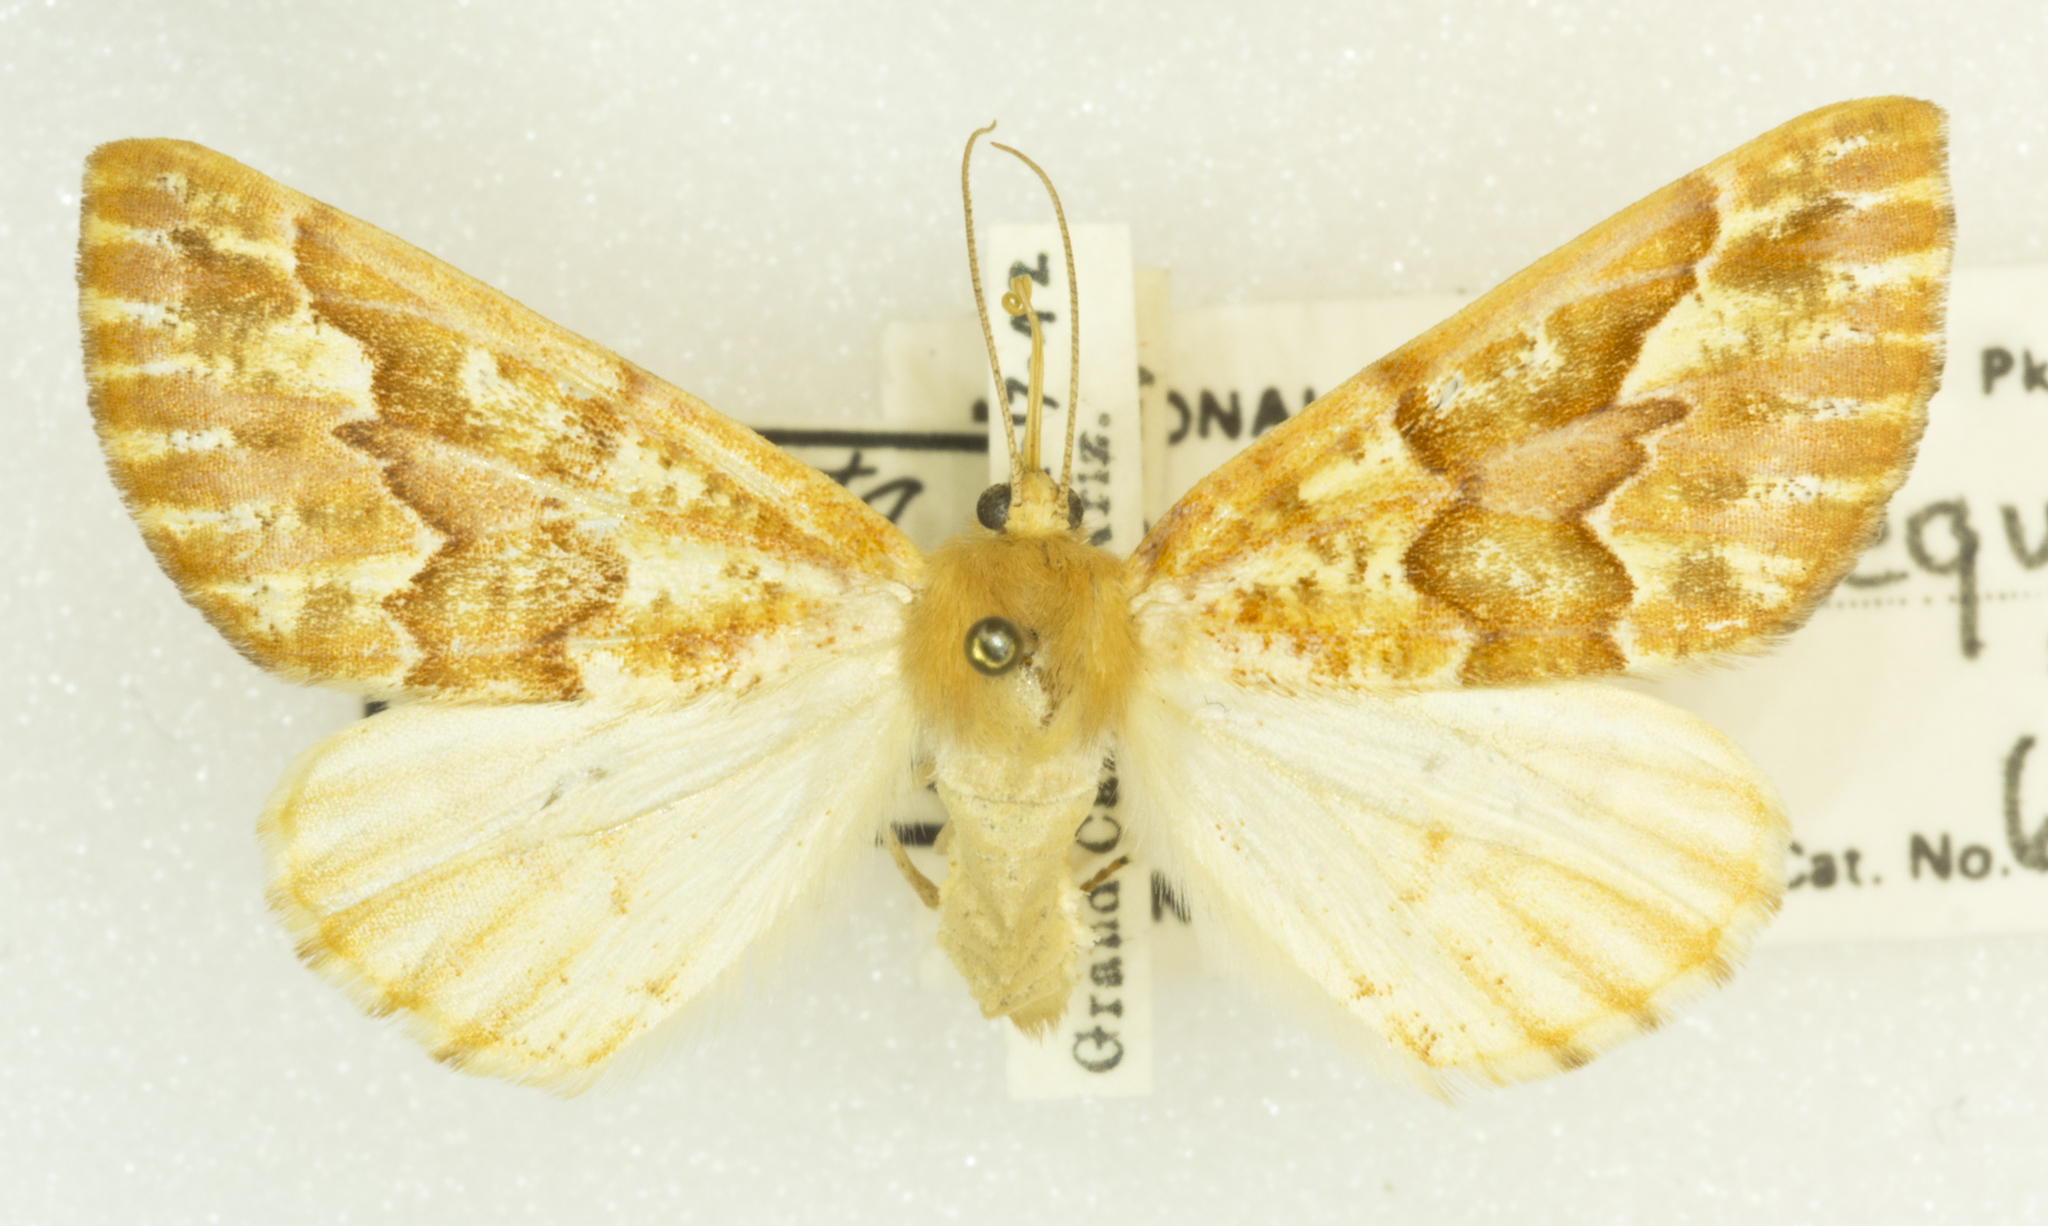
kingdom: Animalia
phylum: Arthropoda
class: Insecta
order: Lepidoptera
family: Geometridae
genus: Caripeta
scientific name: Caripeta aequaliaria
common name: Red girdle moth
